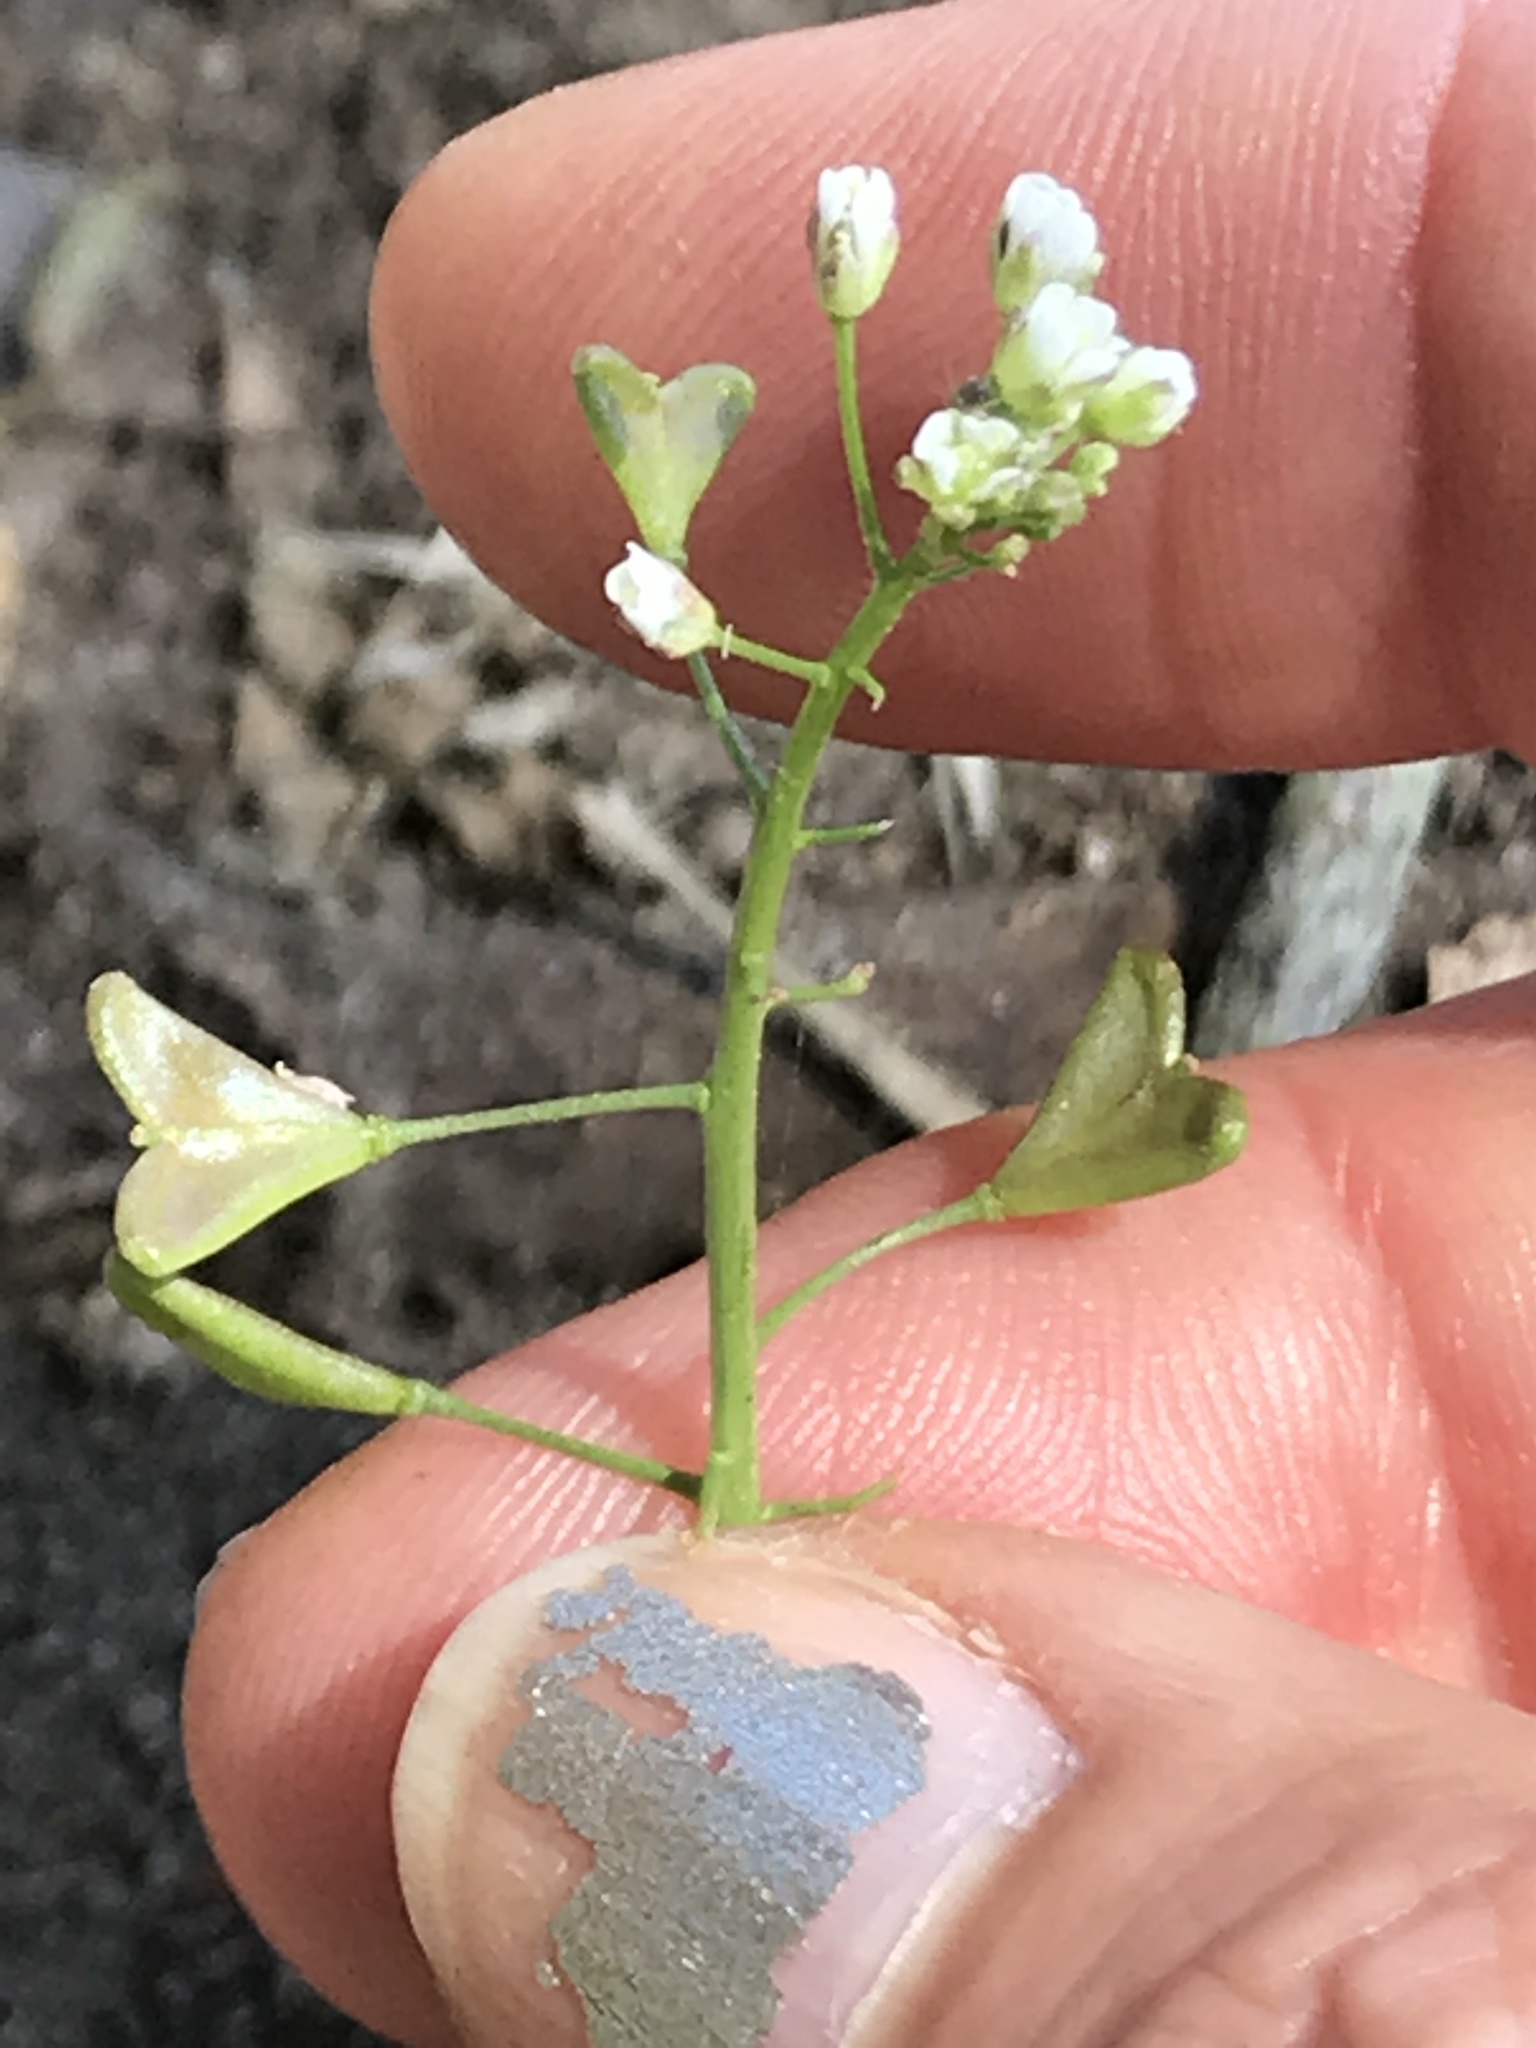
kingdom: Plantae
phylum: Tracheophyta
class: Magnoliopsida
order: Brassicales
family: Brassicaceae
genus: Capsella
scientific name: Capsella bursa-pastoris
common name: Shepherd's purse
